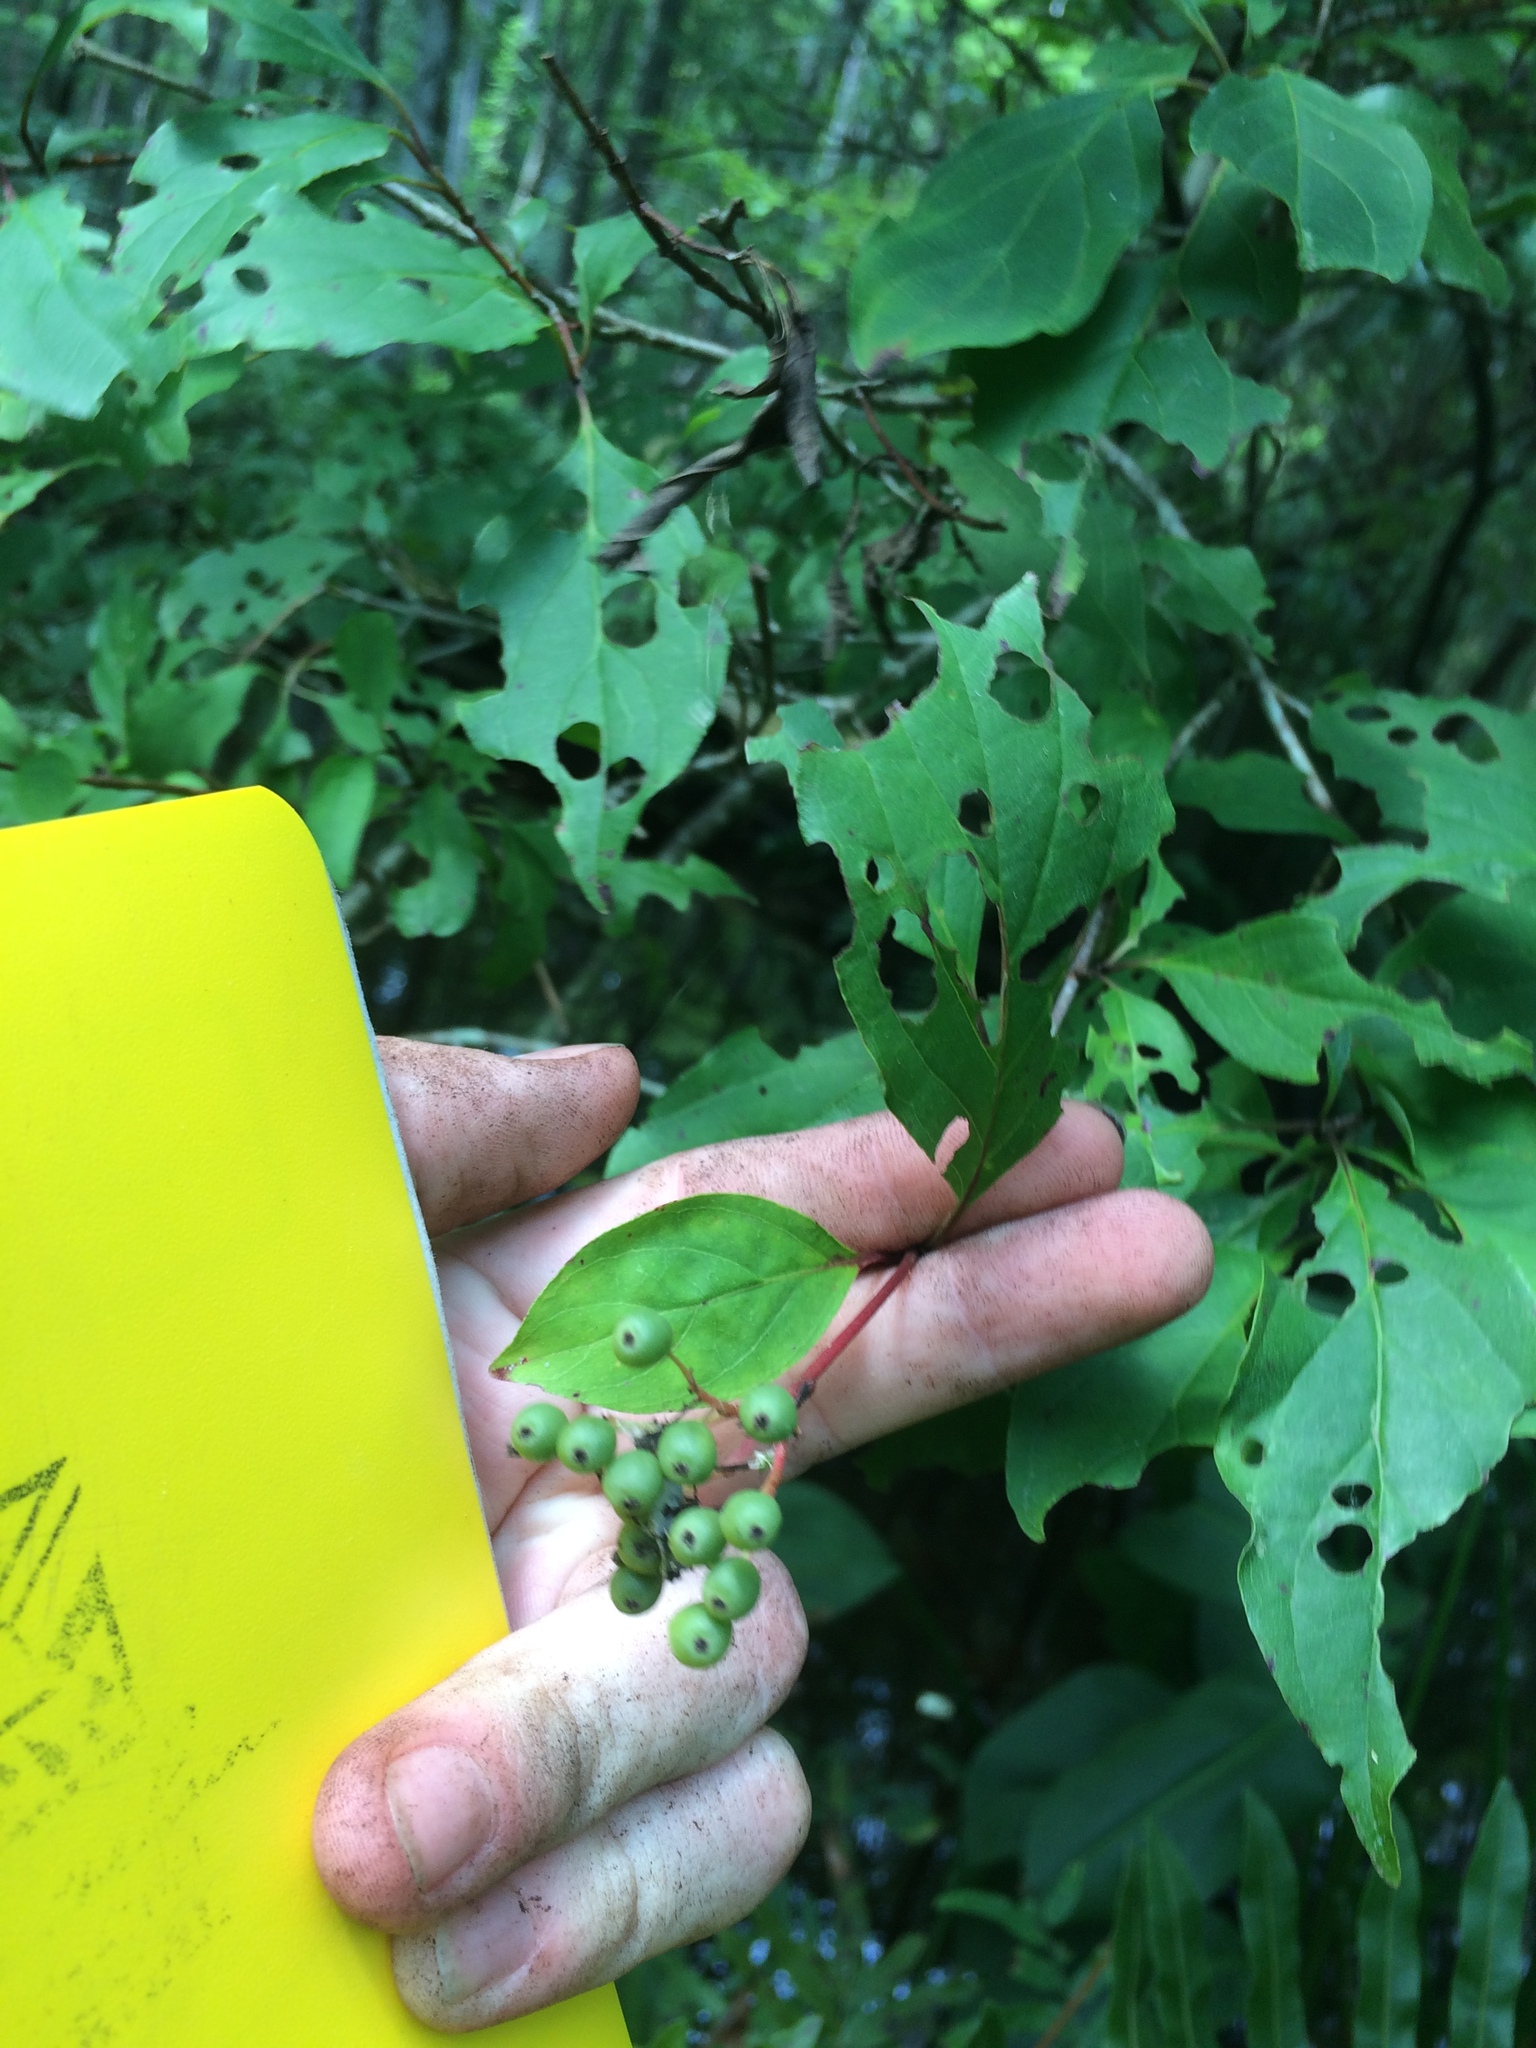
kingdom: Plantae
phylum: Tracheophyta
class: Magnoliopsida
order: Cornales
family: Cornaceae
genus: Cornus
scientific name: Cornus foemina
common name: Swamp dogwood
